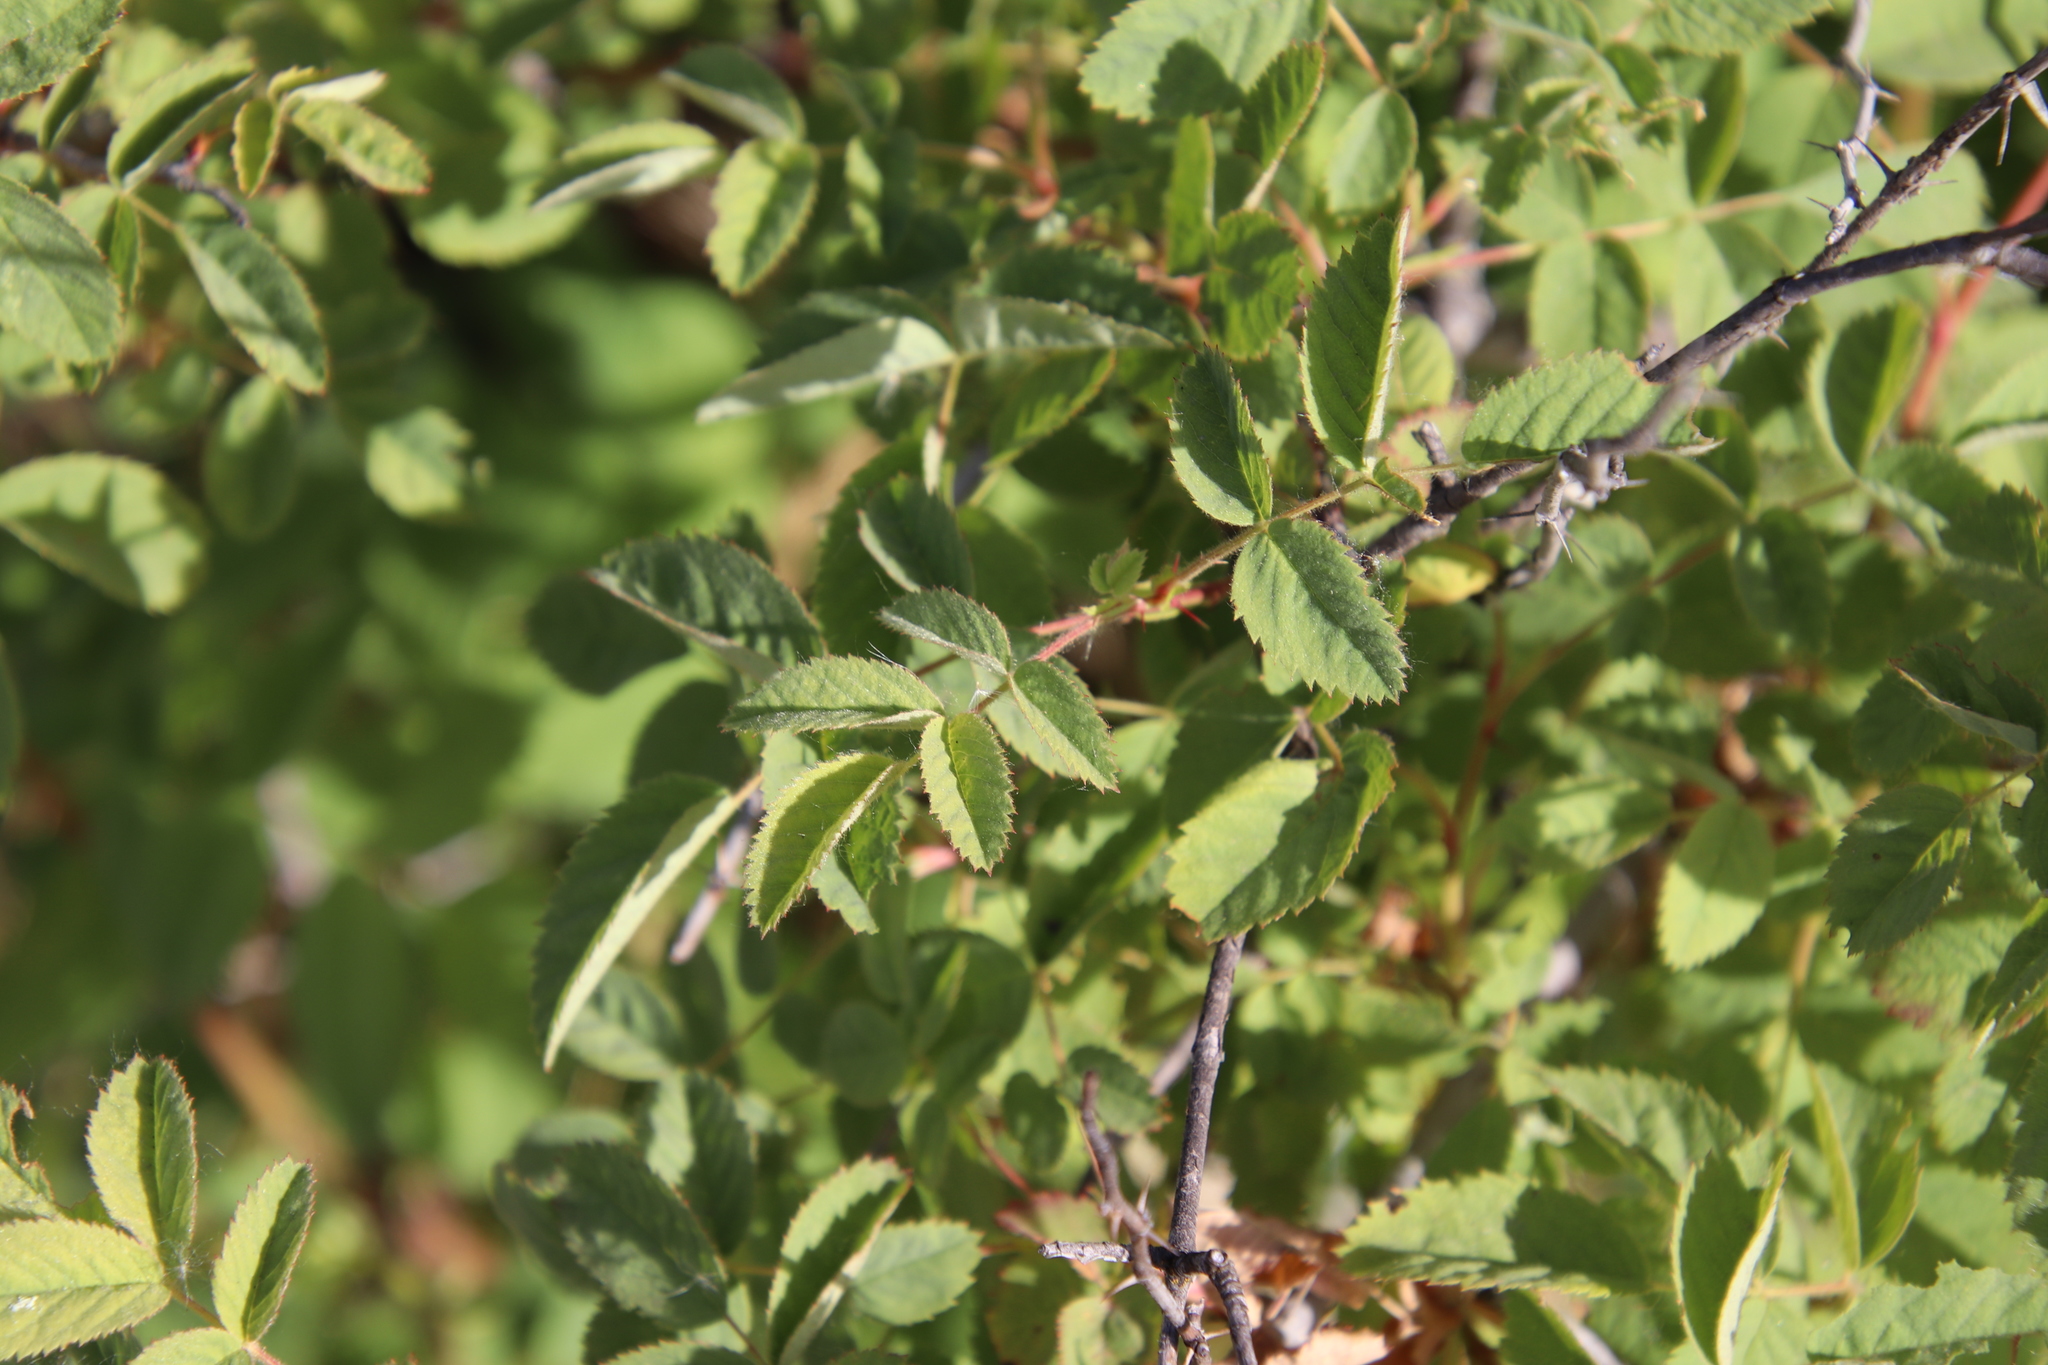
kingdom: Plantae
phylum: Tracheophyta
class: Magnoliopsida
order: Rosales
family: Rosaceae
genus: Rosa
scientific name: Rosa californica
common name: California rose
